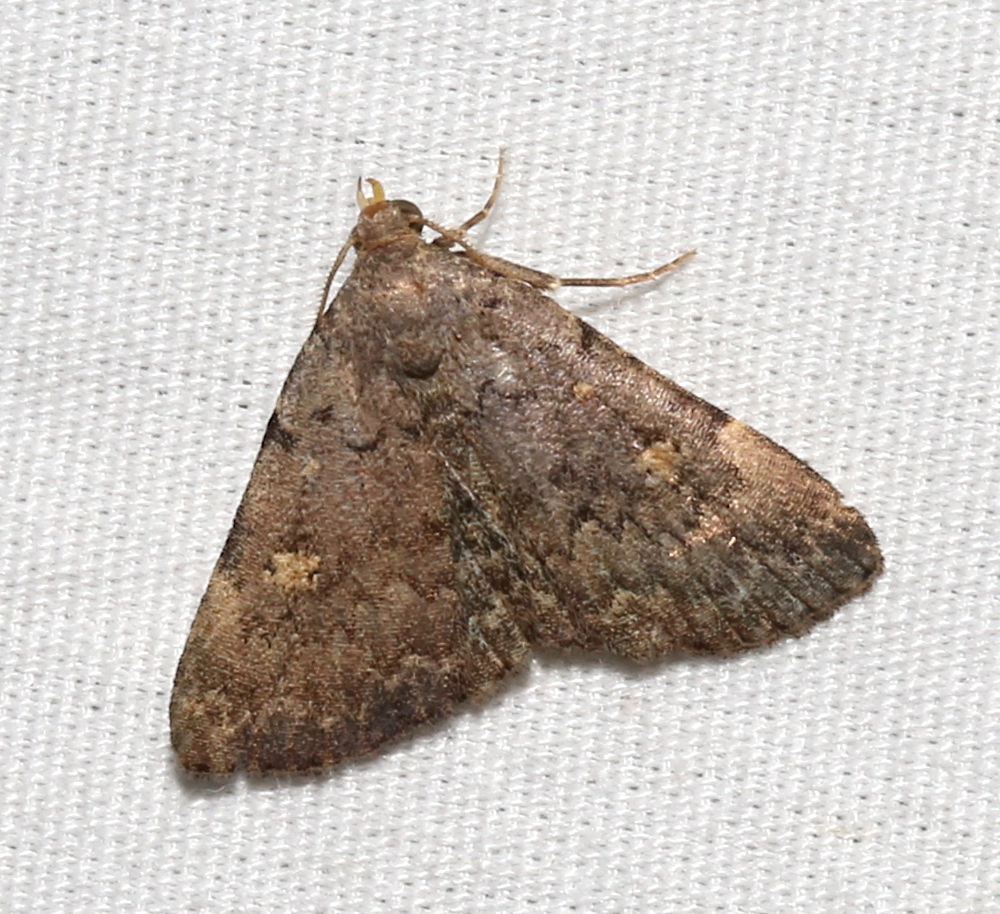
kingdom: Animalia
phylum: Arthropoda
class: Insecta
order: Lepidoptera
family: Erebidae
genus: Idia
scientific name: Idia aemula
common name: Common idia moth
